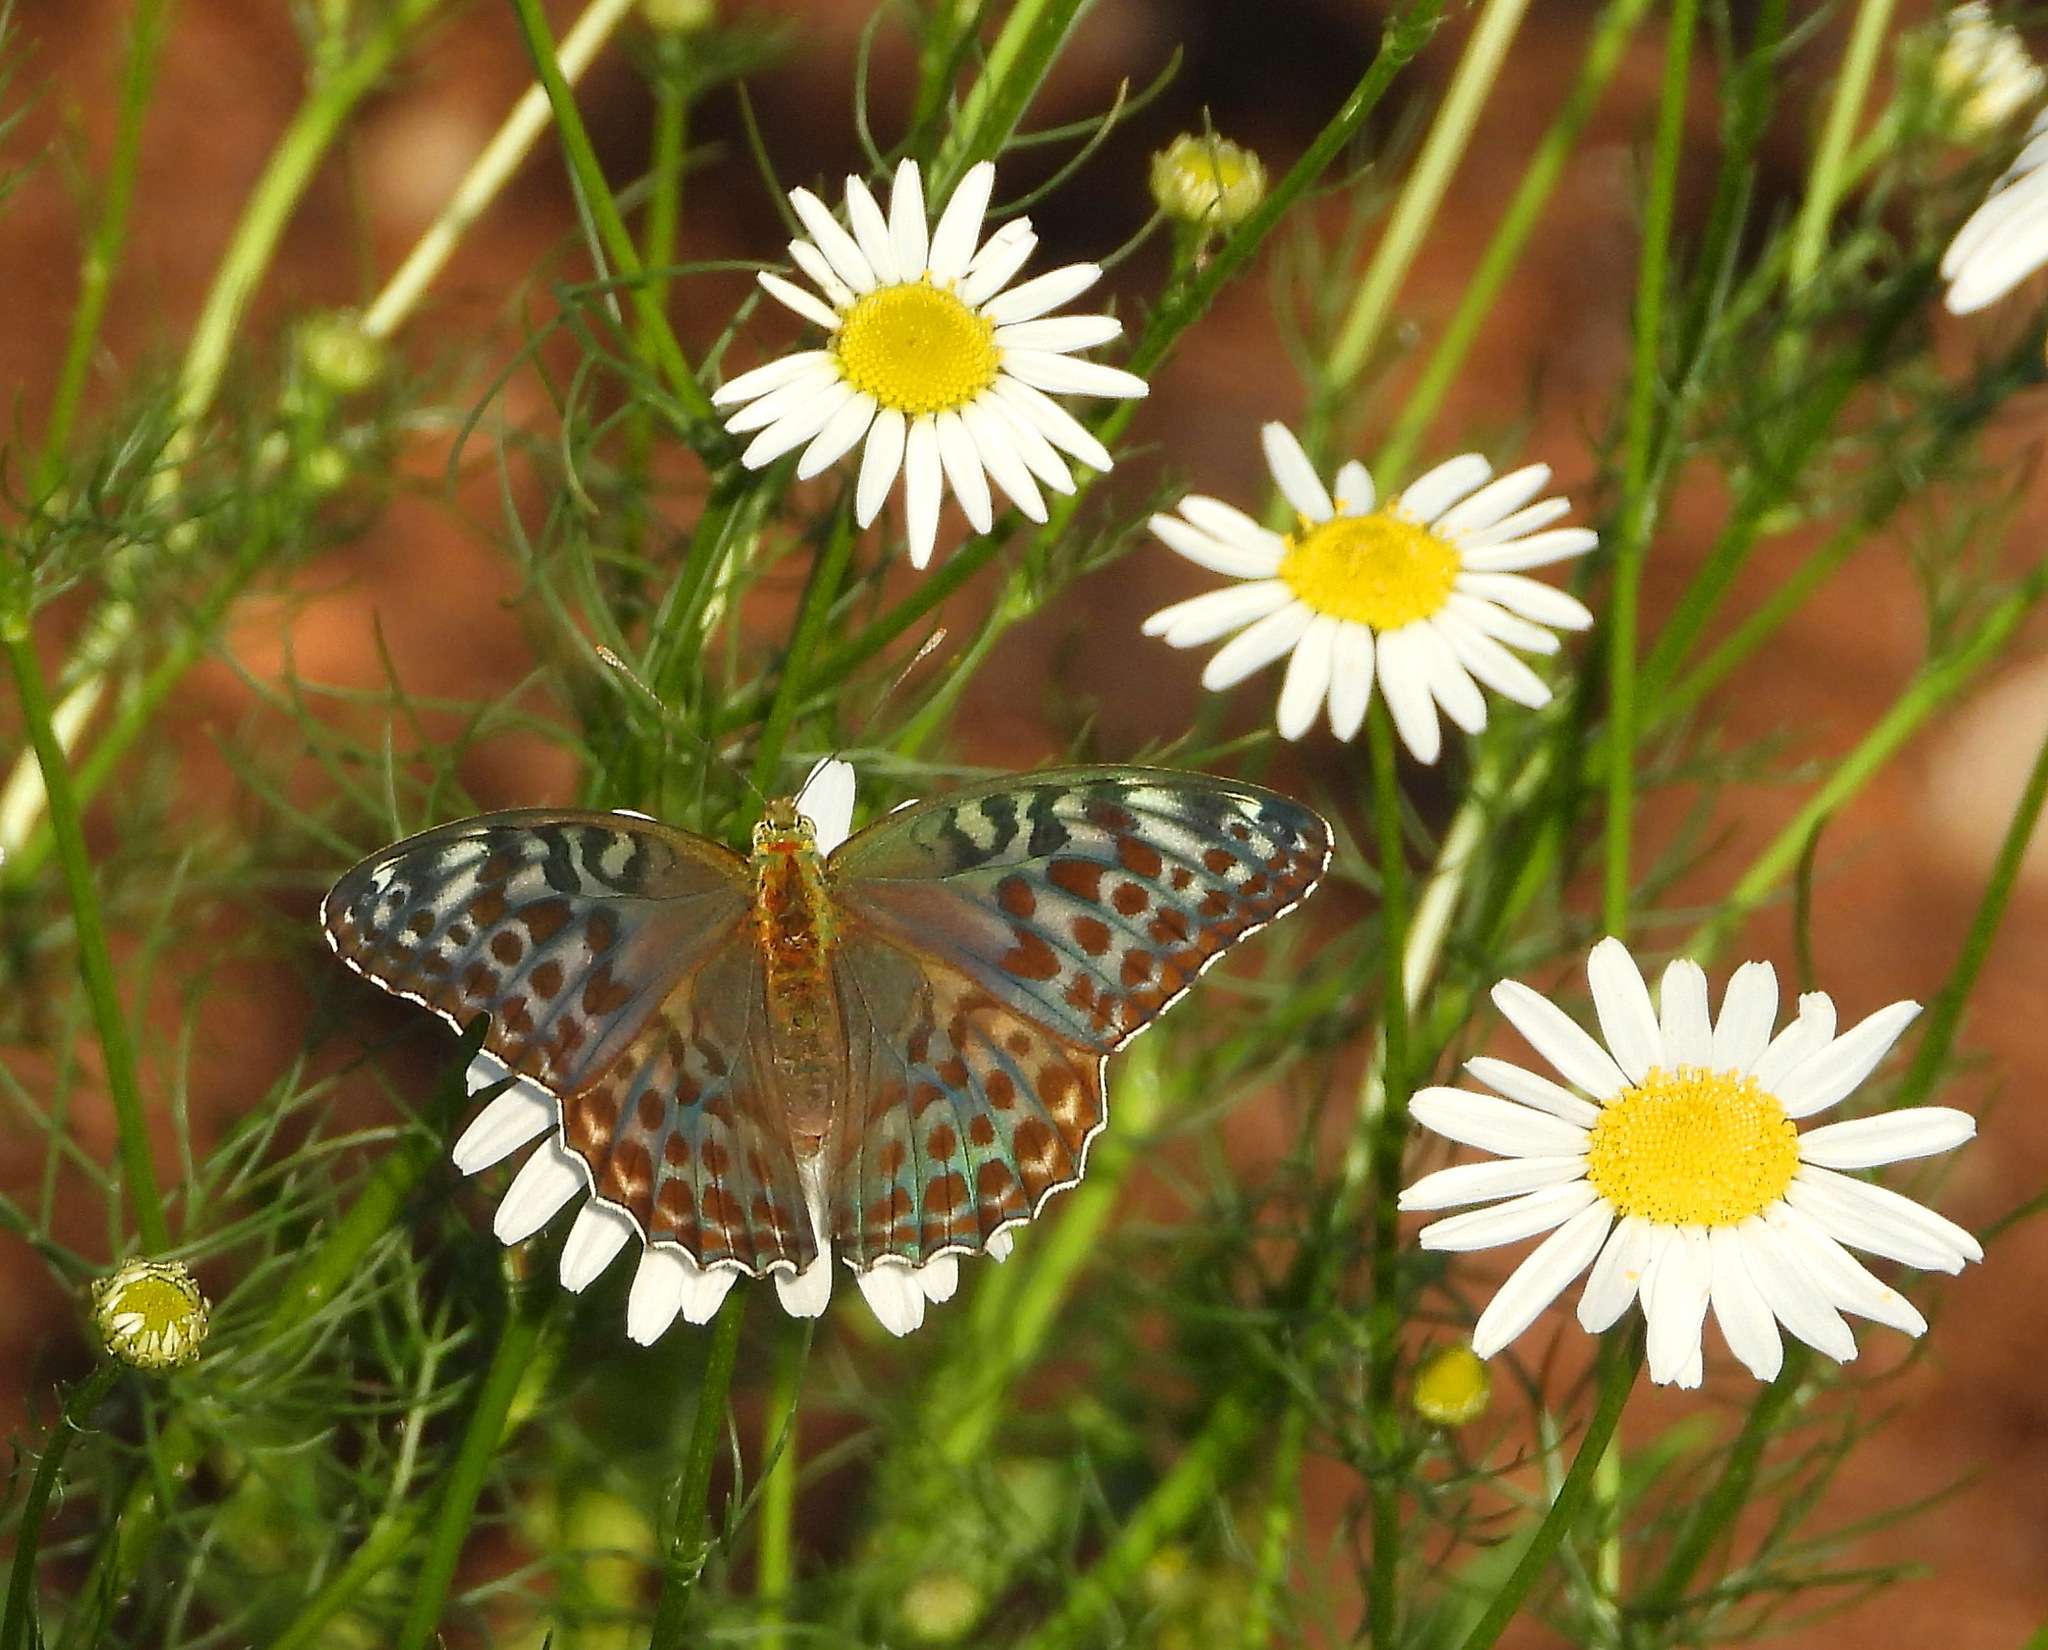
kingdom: Animalia
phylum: Arthropoda
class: Insecta
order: Lepidoptera
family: Nymphalidae
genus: Argynnis
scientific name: Argynnis paphia
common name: Silver-washed fritillary
